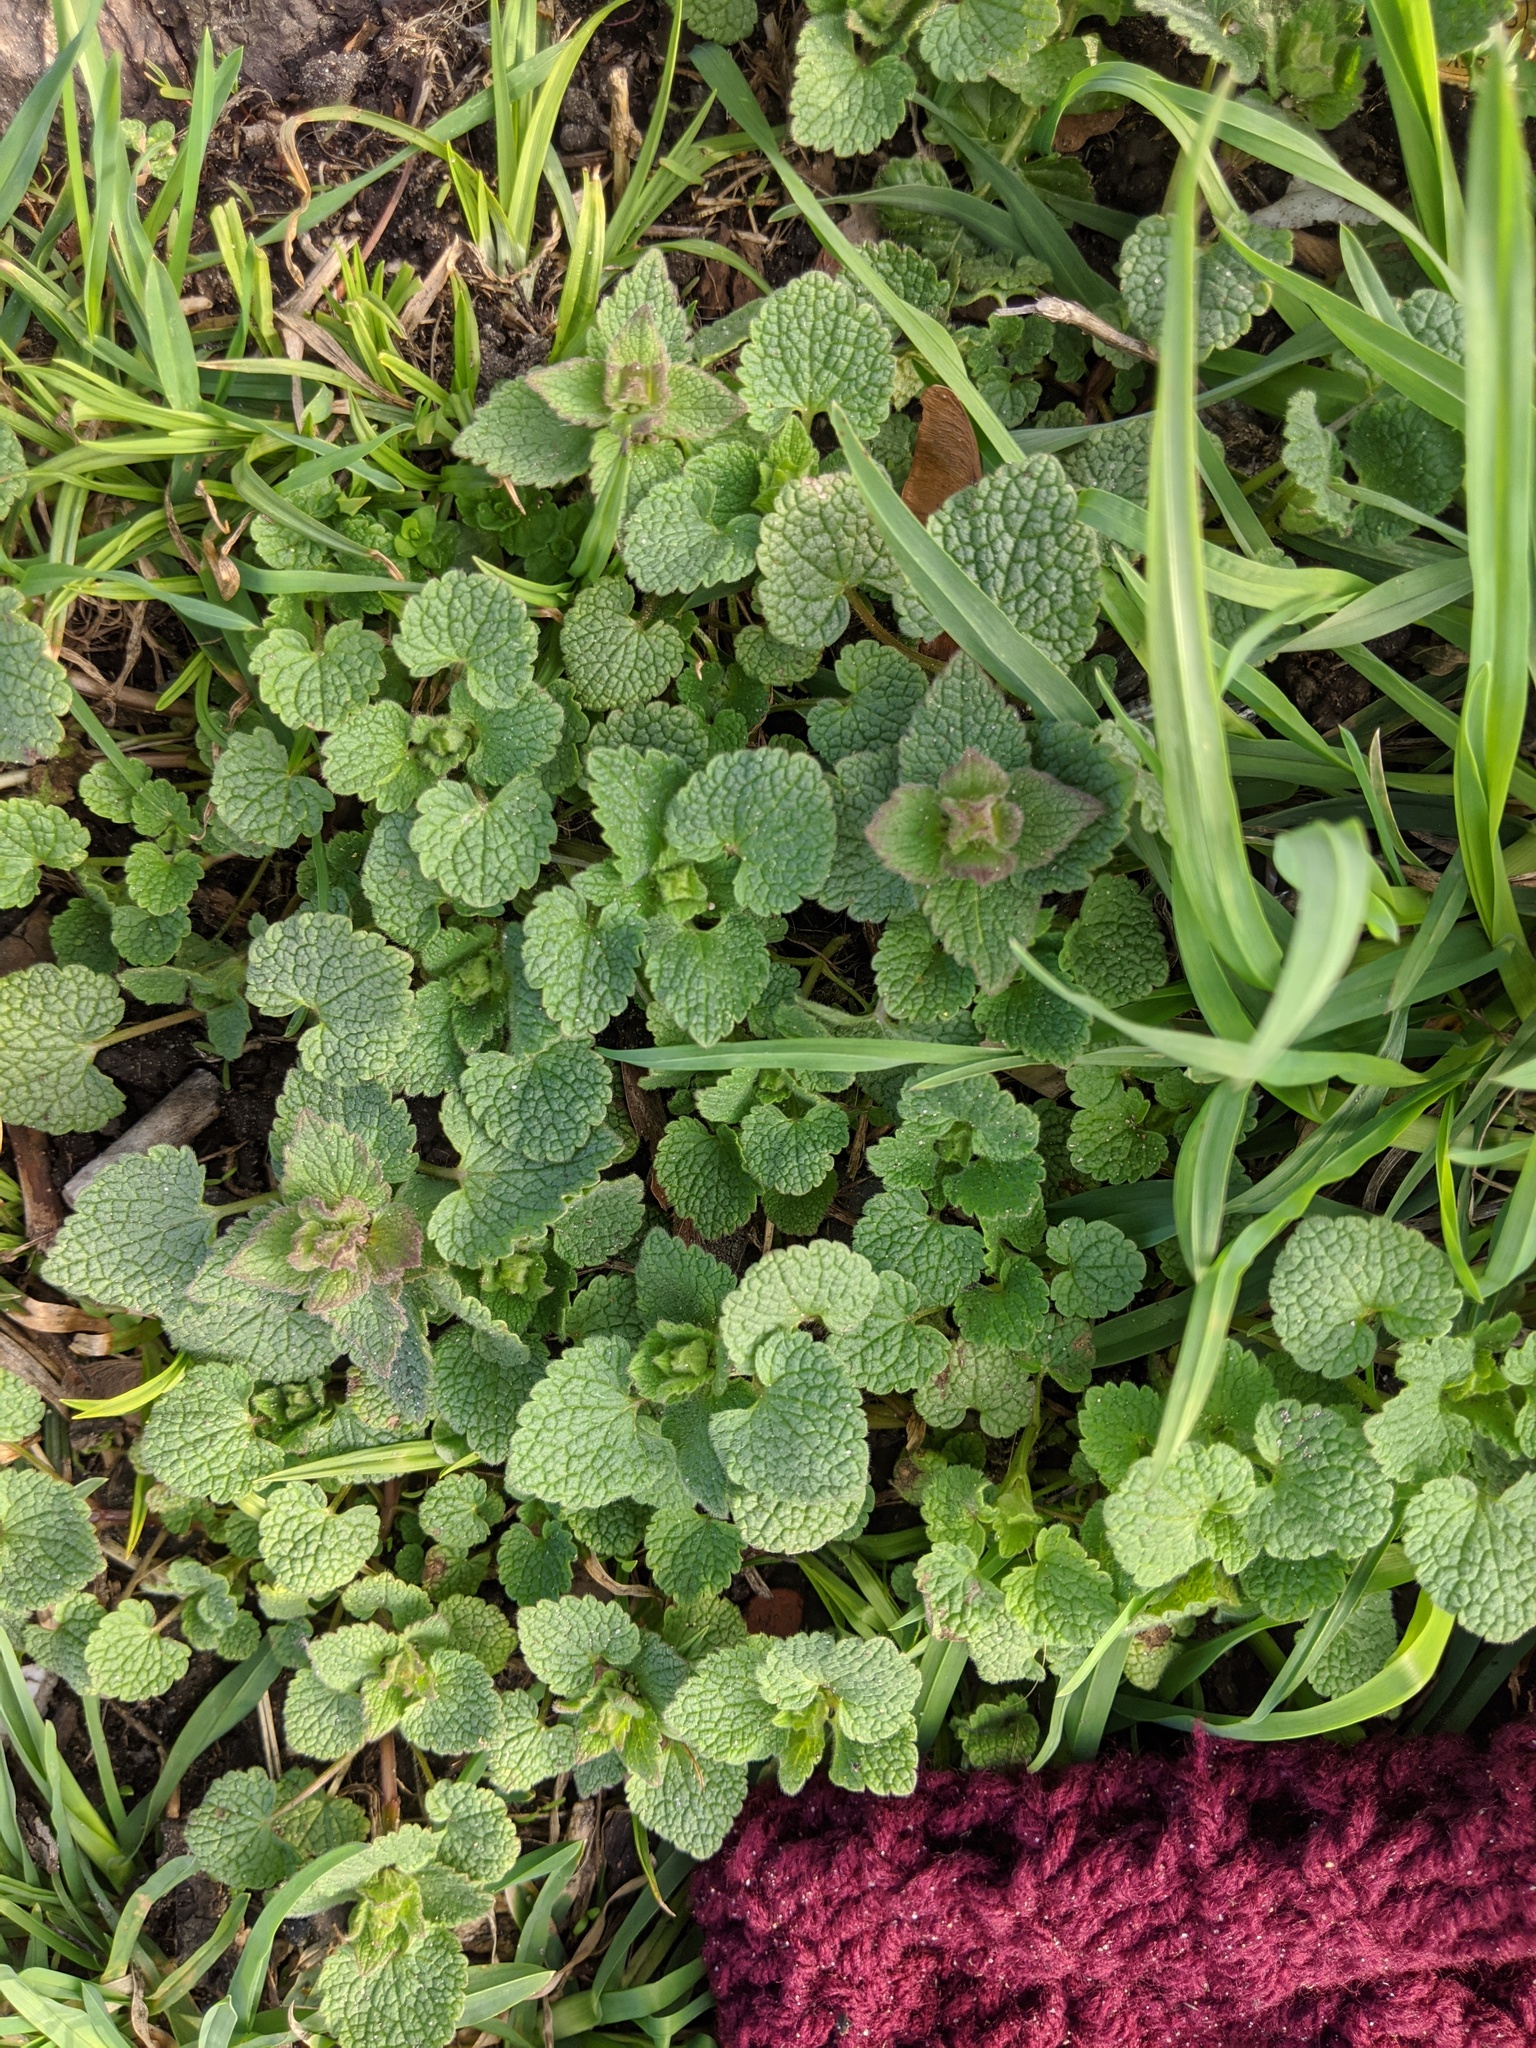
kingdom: Plantae
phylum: Tracheophyta
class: Magnoliopsida
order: Lamiales
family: Lamiaceae
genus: Lamium
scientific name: Lamium purpureum
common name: Red dead-nettle
